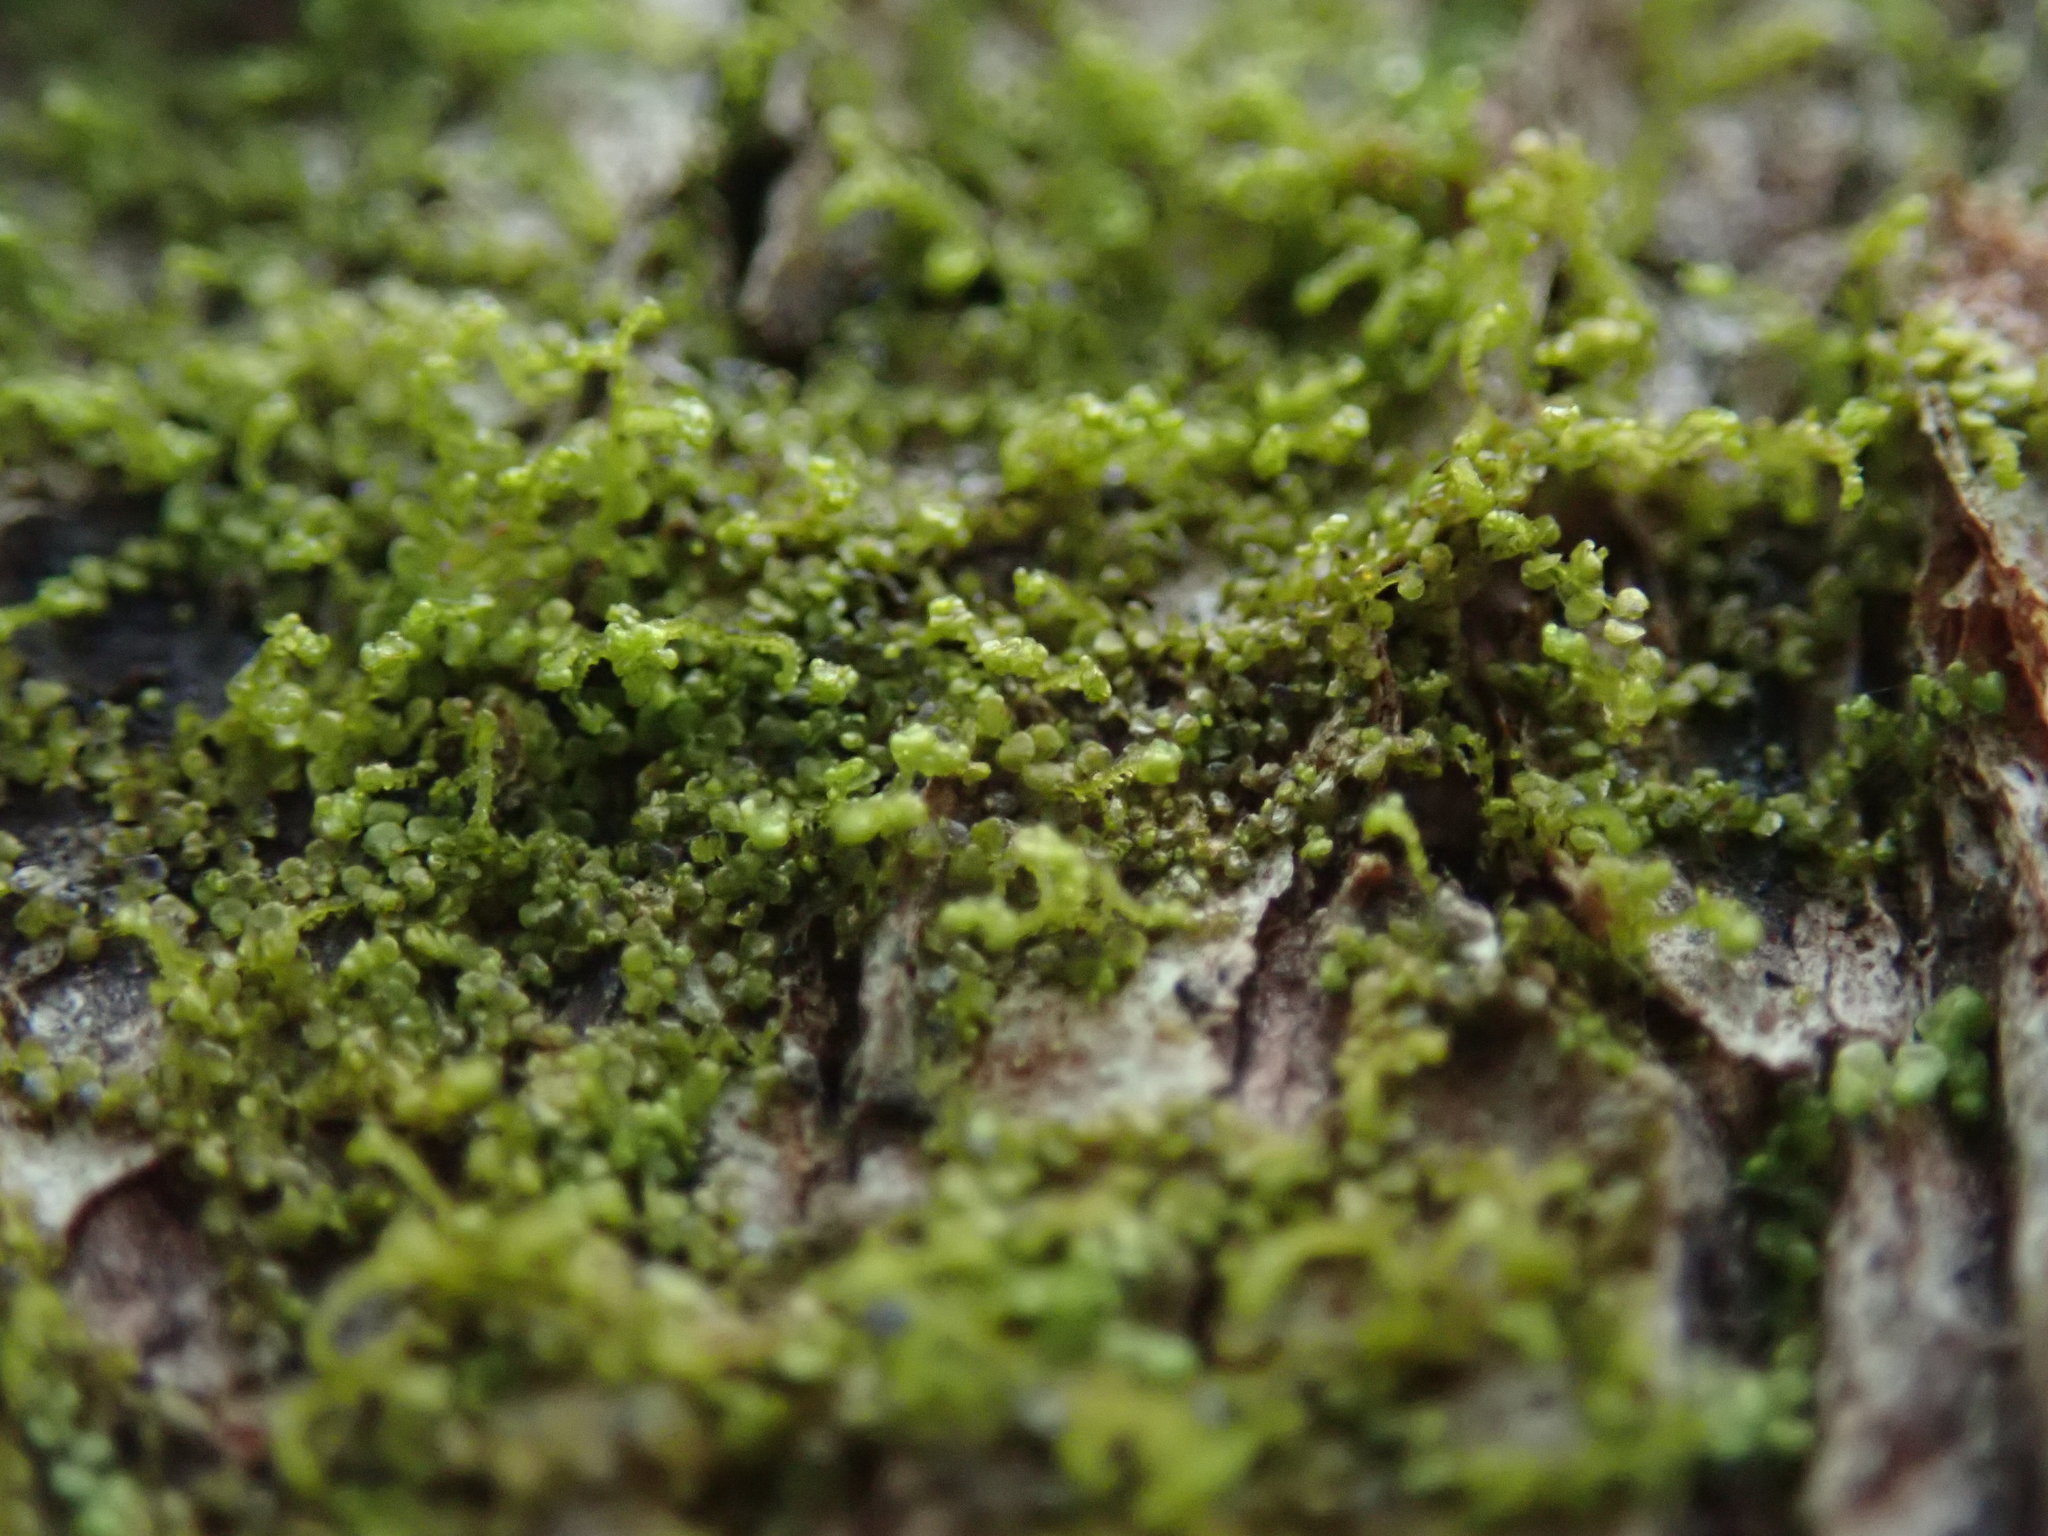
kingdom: Plantae
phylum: Marchantiophyta
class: Jungermanniopsida
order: Porellales
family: Frullaniaceae
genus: Frullania
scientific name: Frullania bolanderi
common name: Bolander s scalewort
